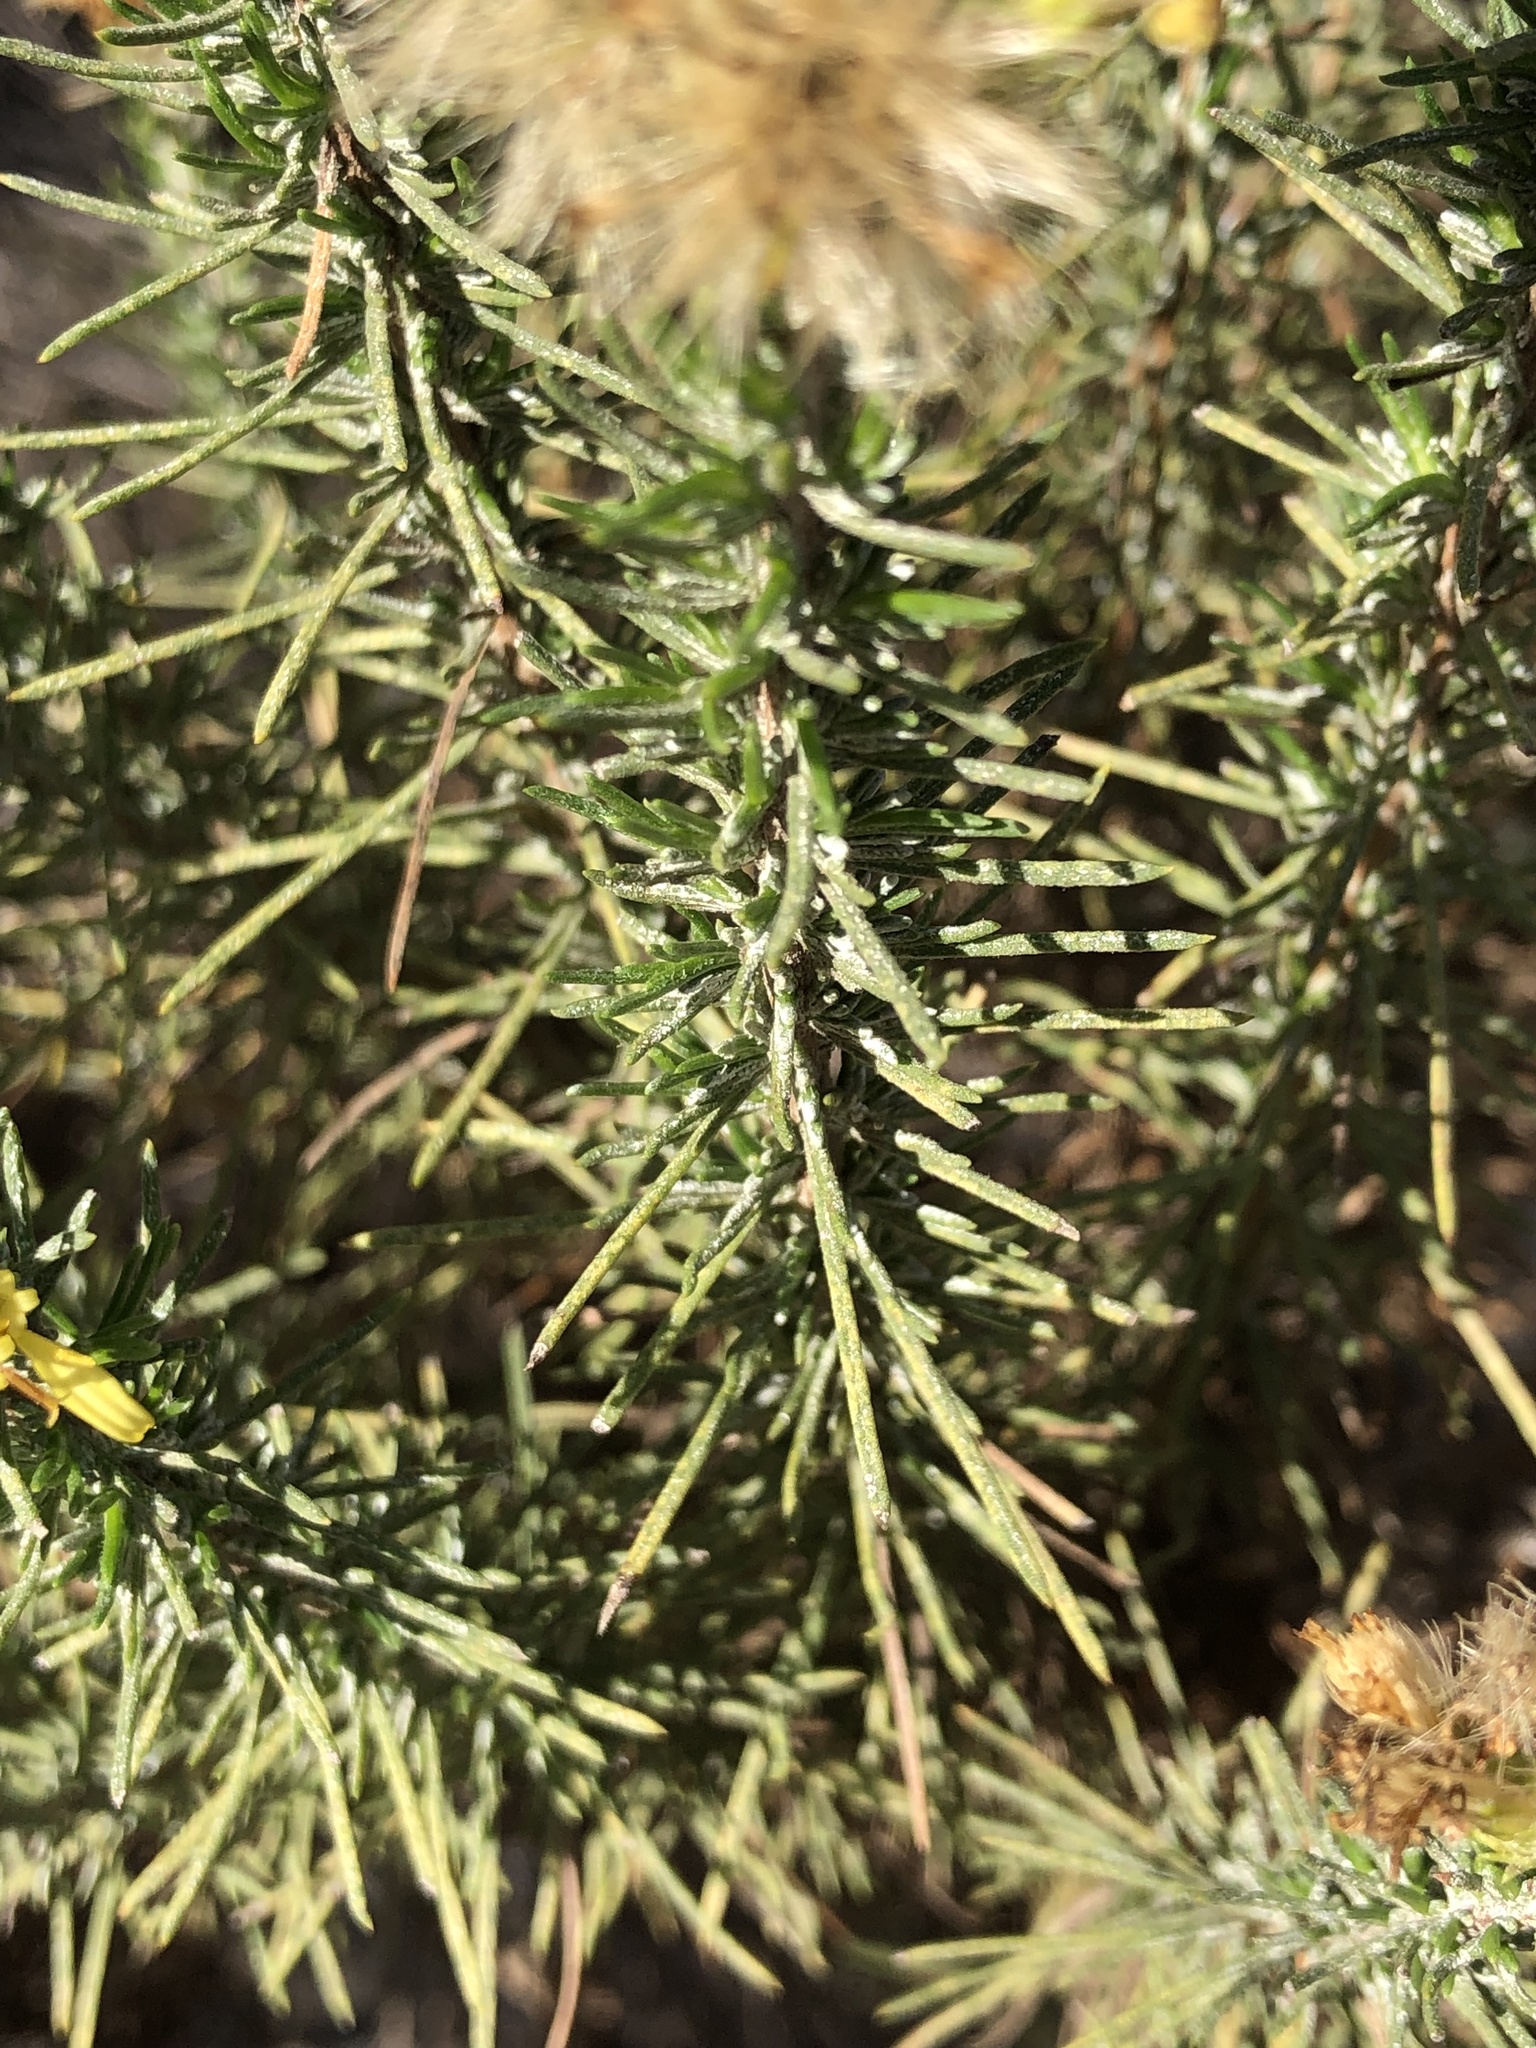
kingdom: Plantae
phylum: Tracheophyta
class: Magnoliopsida
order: Asterales
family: Asteraceae
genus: Ericameria
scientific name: Ericameria pinifolia
